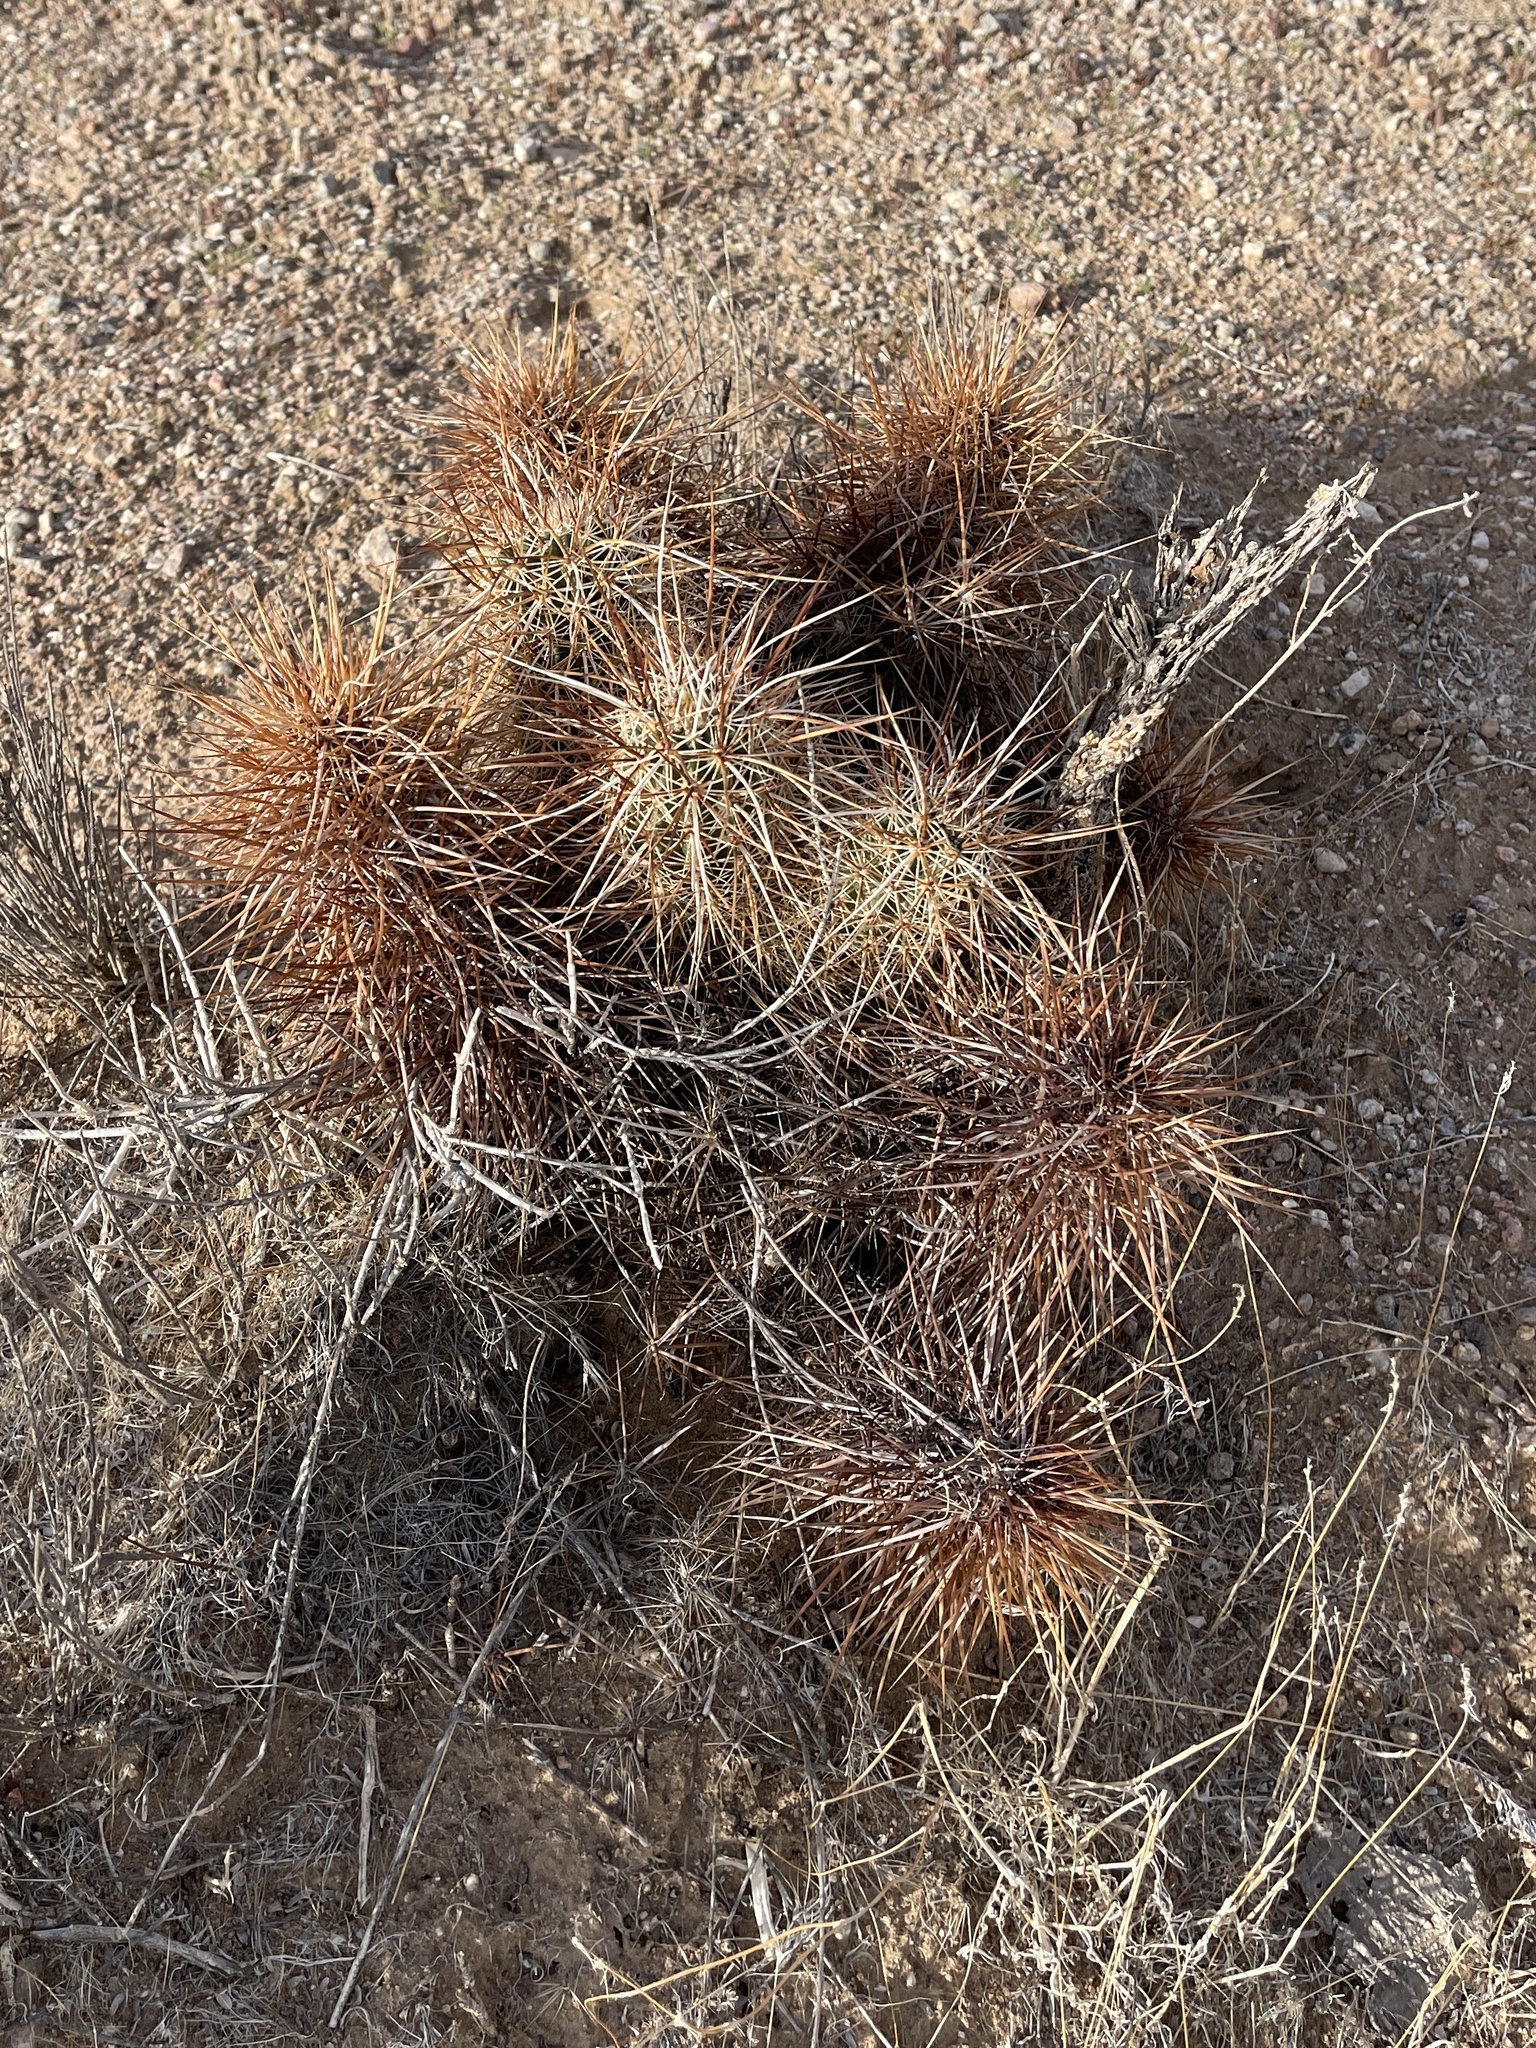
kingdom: Plantae
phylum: Tracheophyta
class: Magnoliopsida
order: Caryophyllales
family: Cactaceae
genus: Echinocereus
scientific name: Echinocereus engelmannii
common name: Engelmann's hedgehog cactus
